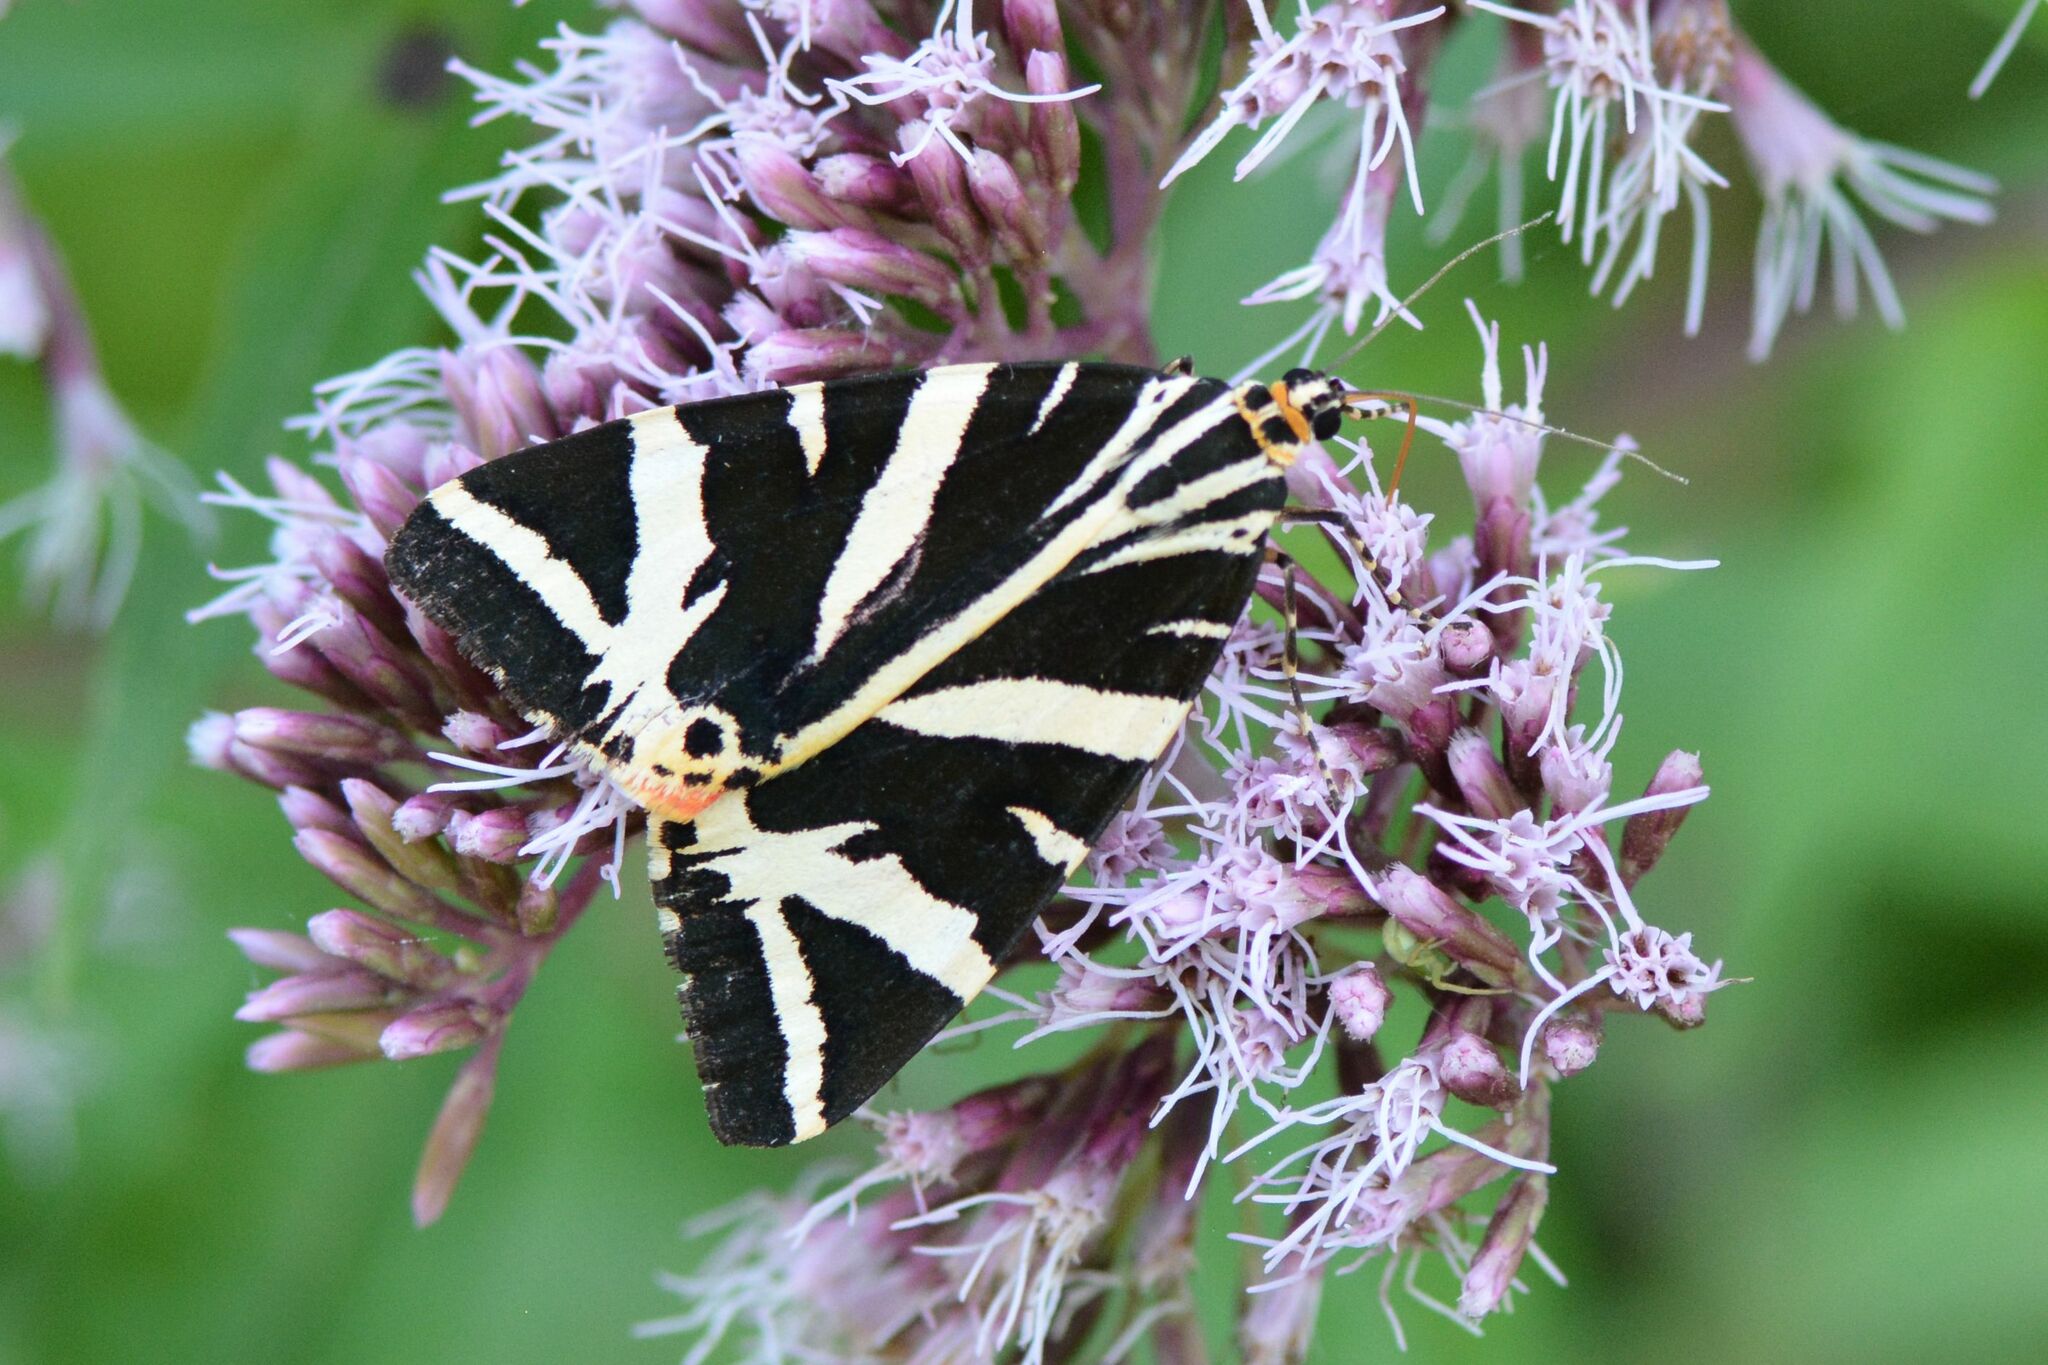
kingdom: Animalia
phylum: Arthropoda
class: Insecta
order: Lepidoptera
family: Erebidae
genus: Euplagia
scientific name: Euplagia quadripunctaria
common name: Jersey tiger
